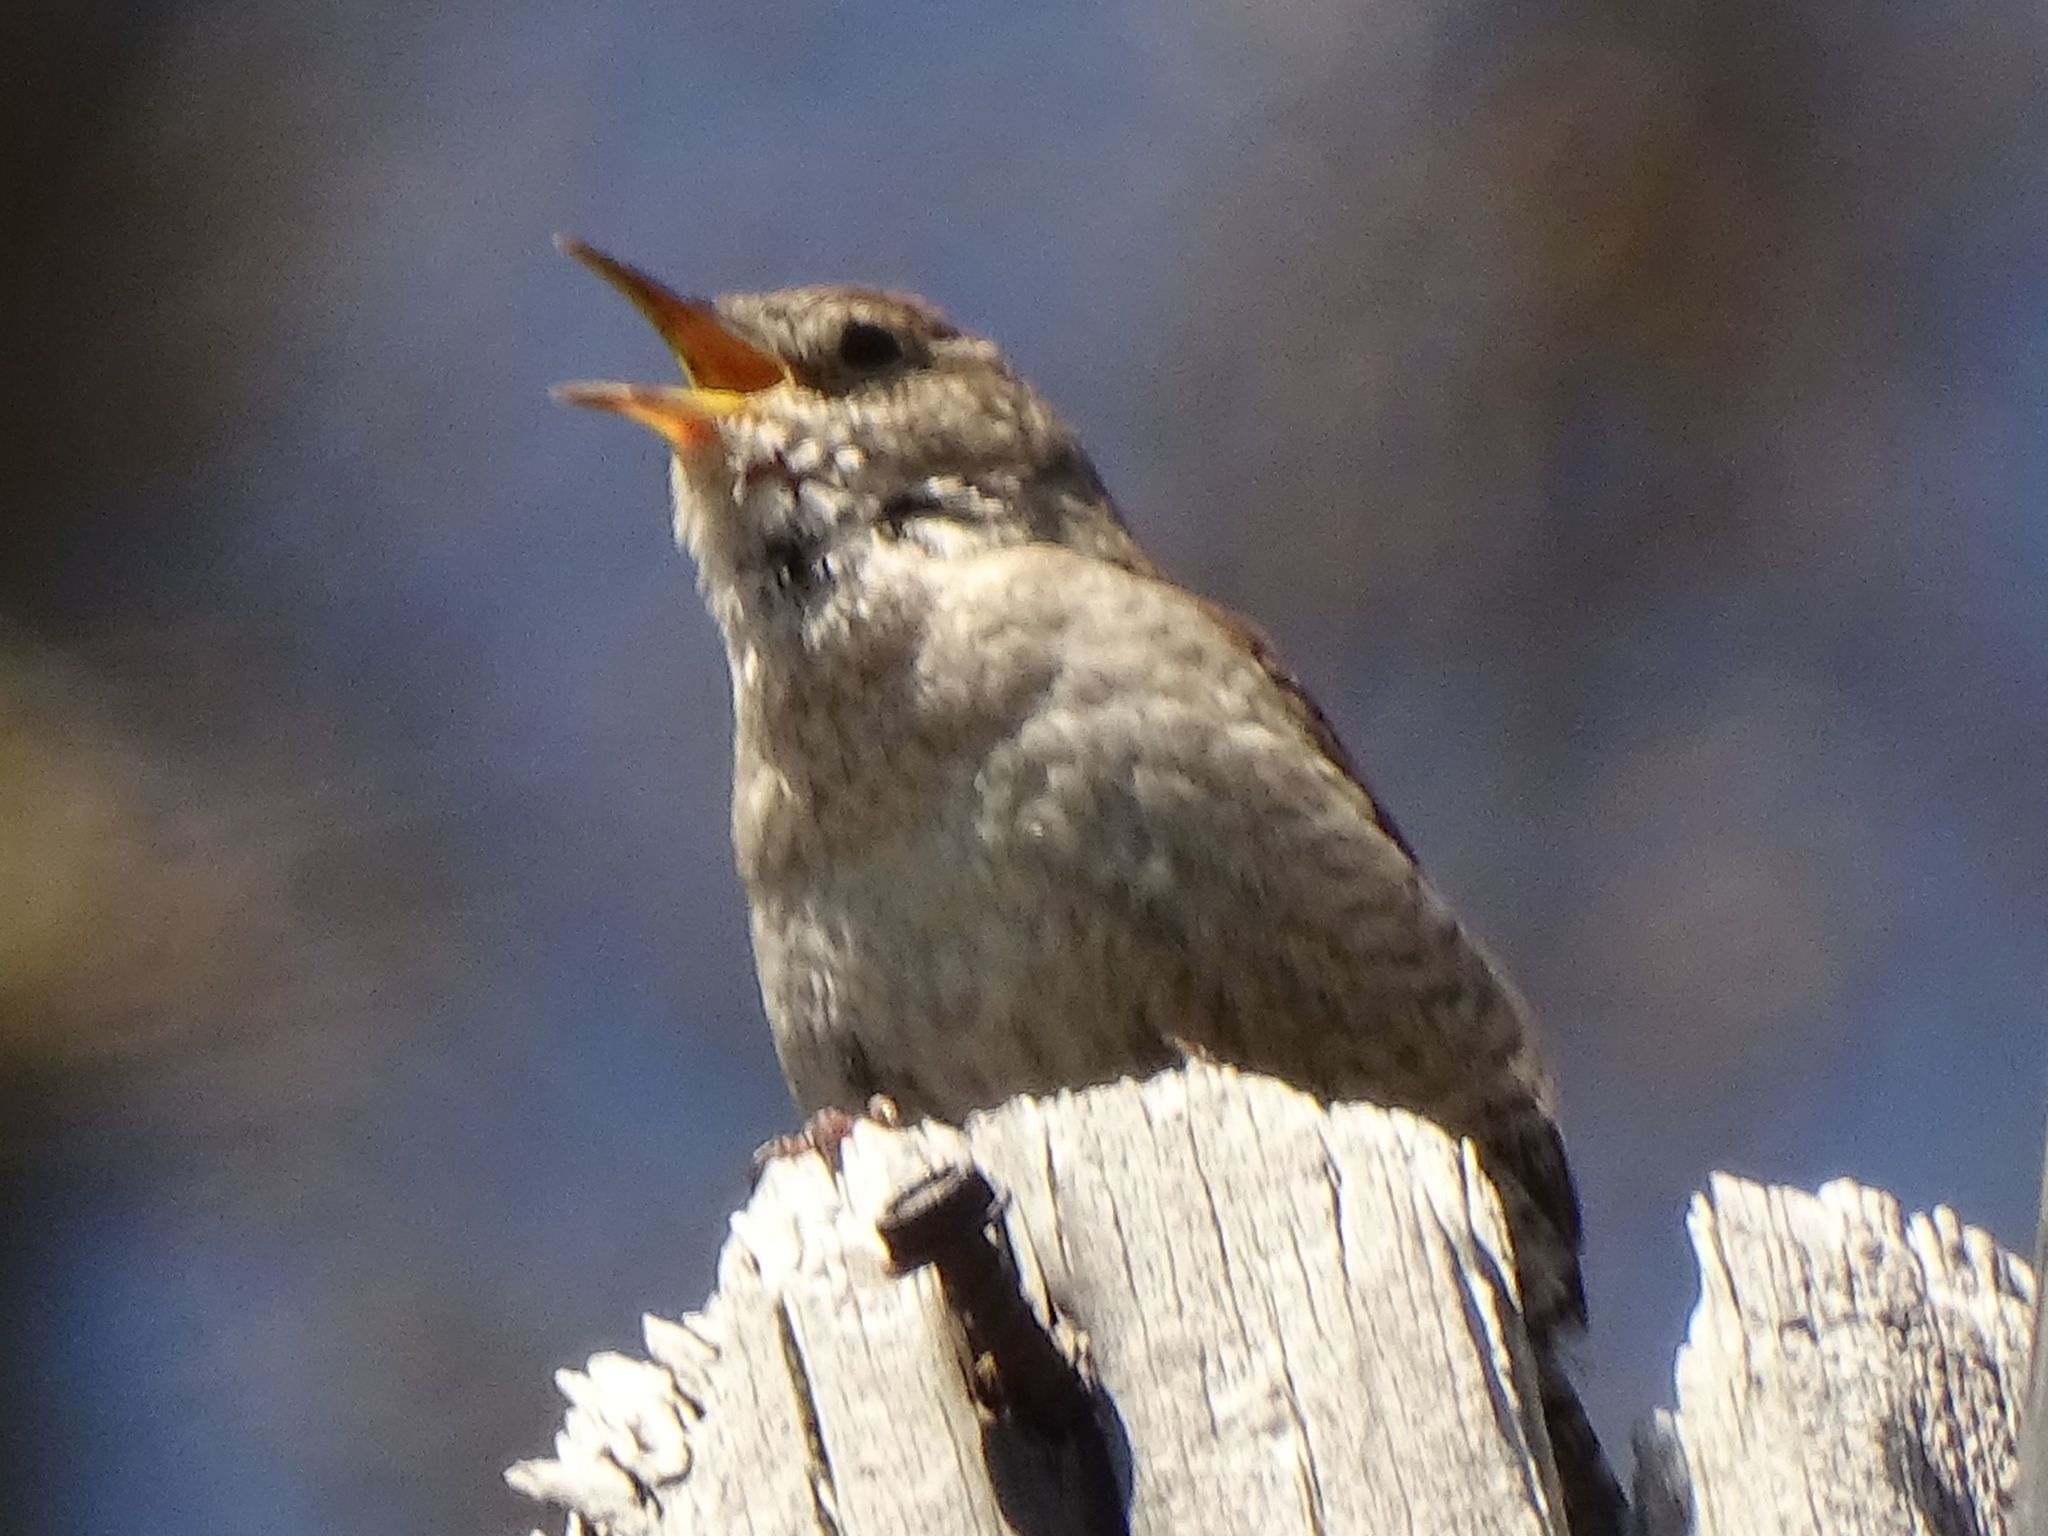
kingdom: Animalia
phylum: Chordata
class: Aves
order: Passeriformes
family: Troglodytidae
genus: Troglodytes
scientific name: Troglodytes aedon
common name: House wren
